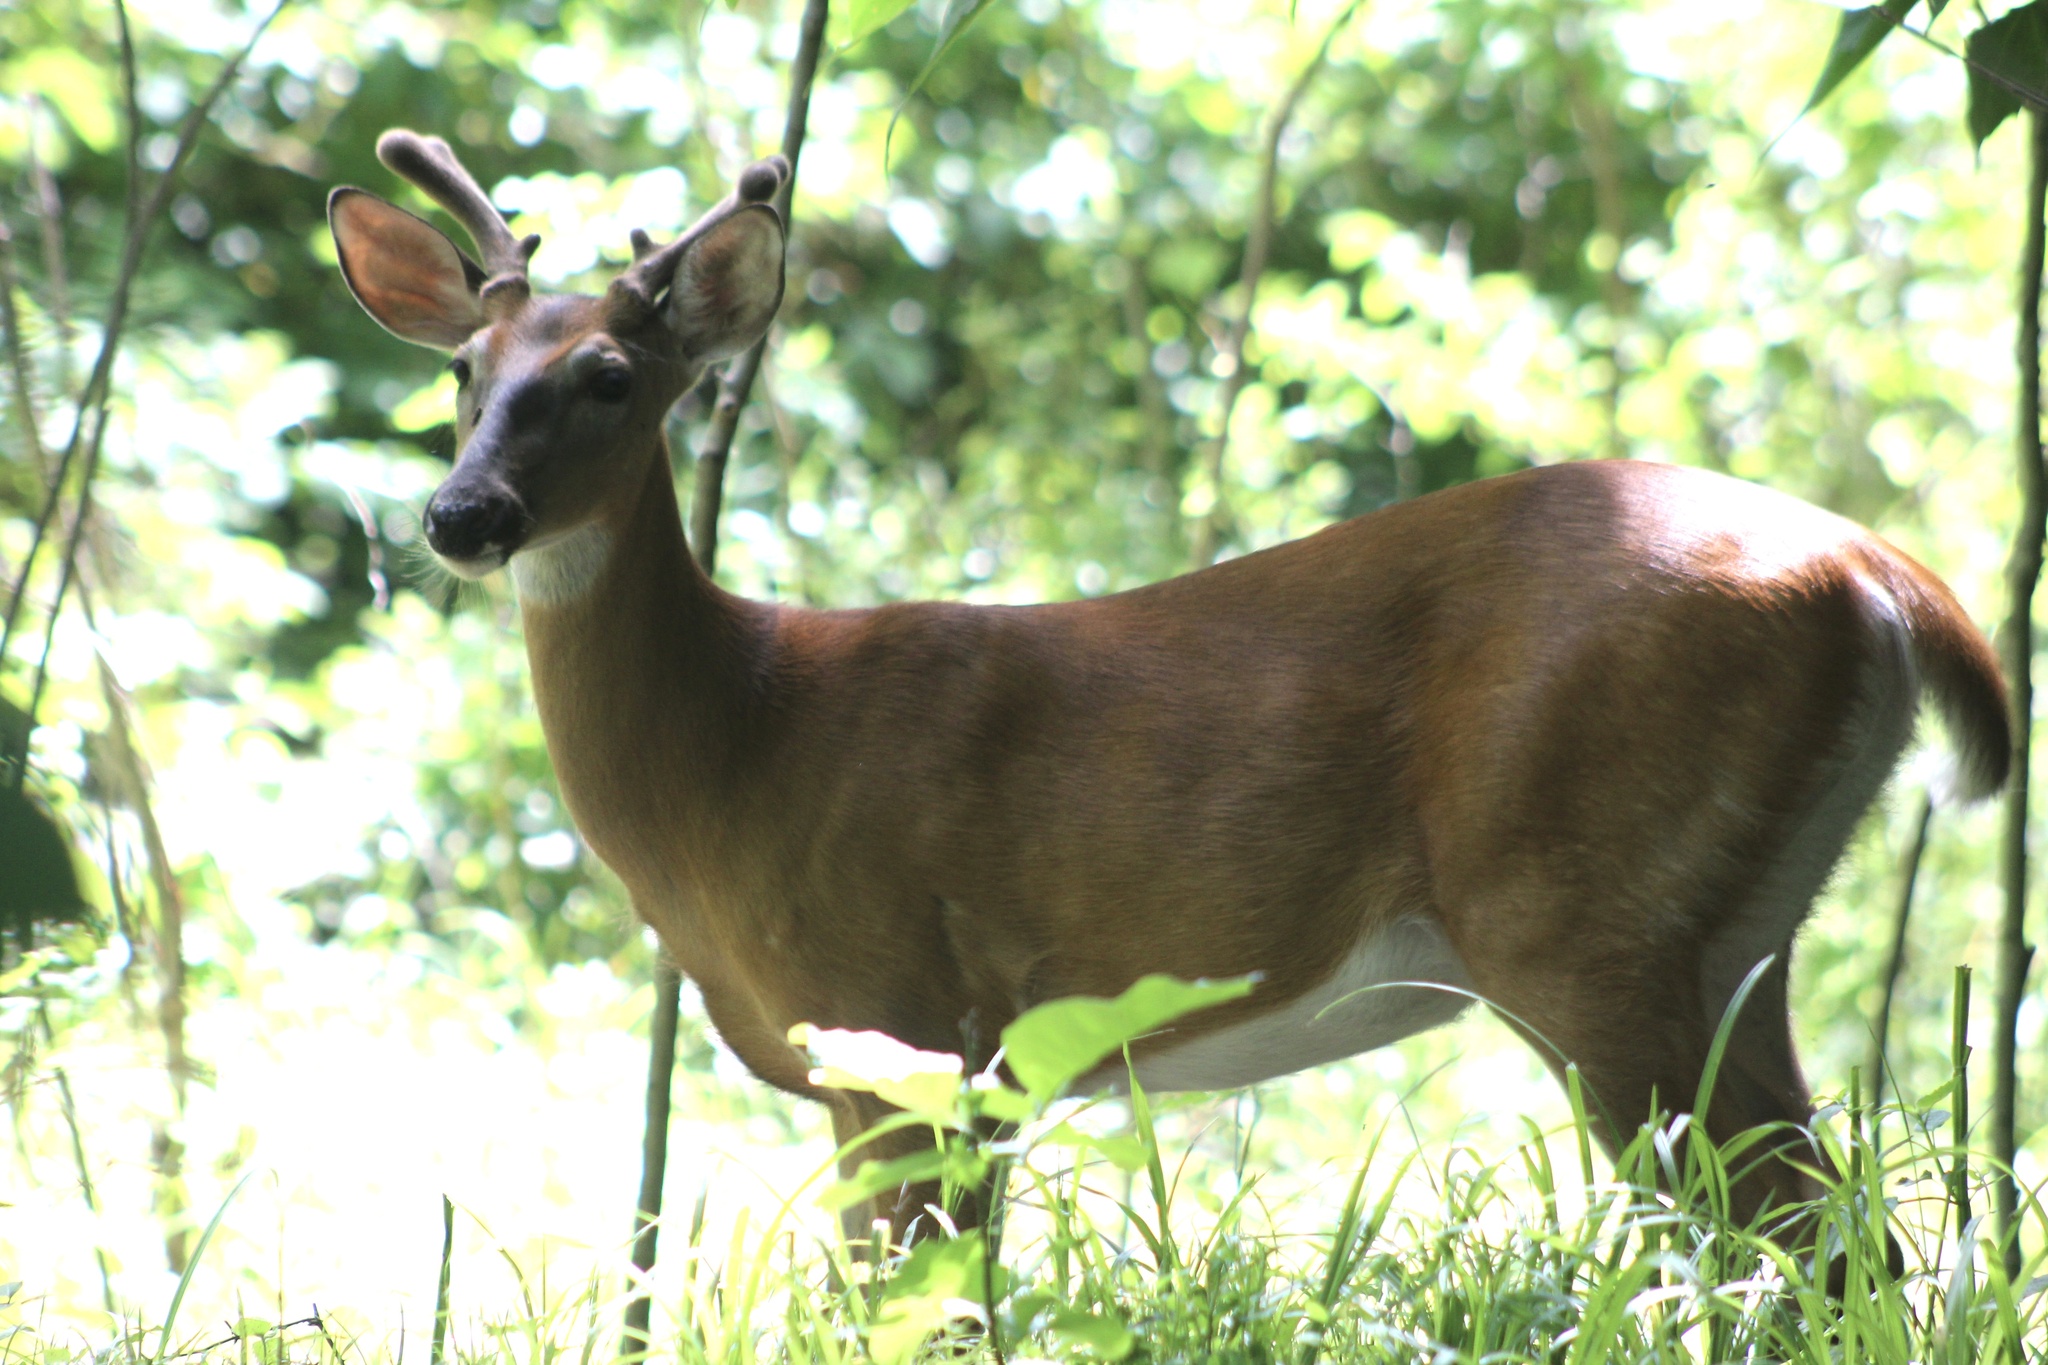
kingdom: Animalia
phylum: Chordata
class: Mammalia
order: Artiodactyla
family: Cervidae
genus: Odocoileus
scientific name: Odocoileus virginianus
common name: White-tailed deer
